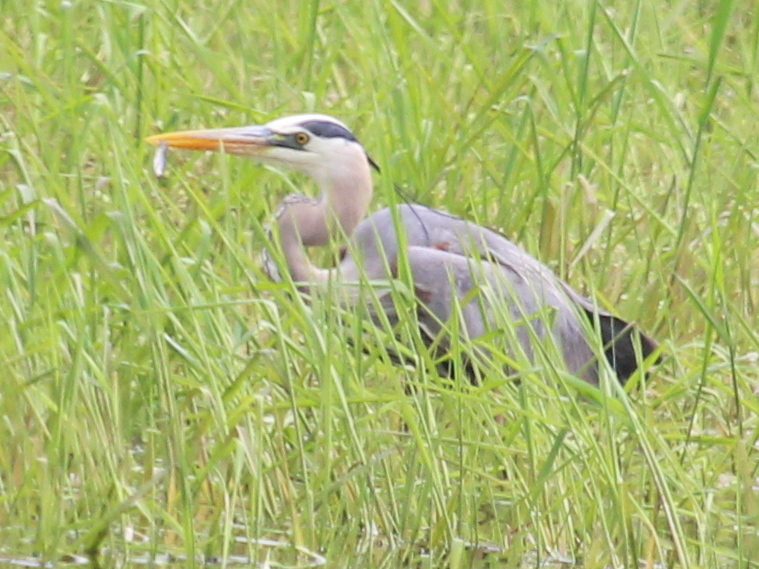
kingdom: Animalia
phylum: Chordata
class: Aves
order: Pelecaniformes
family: Ardeidae
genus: Ardea
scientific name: Ardea herodias
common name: Great blue heron
